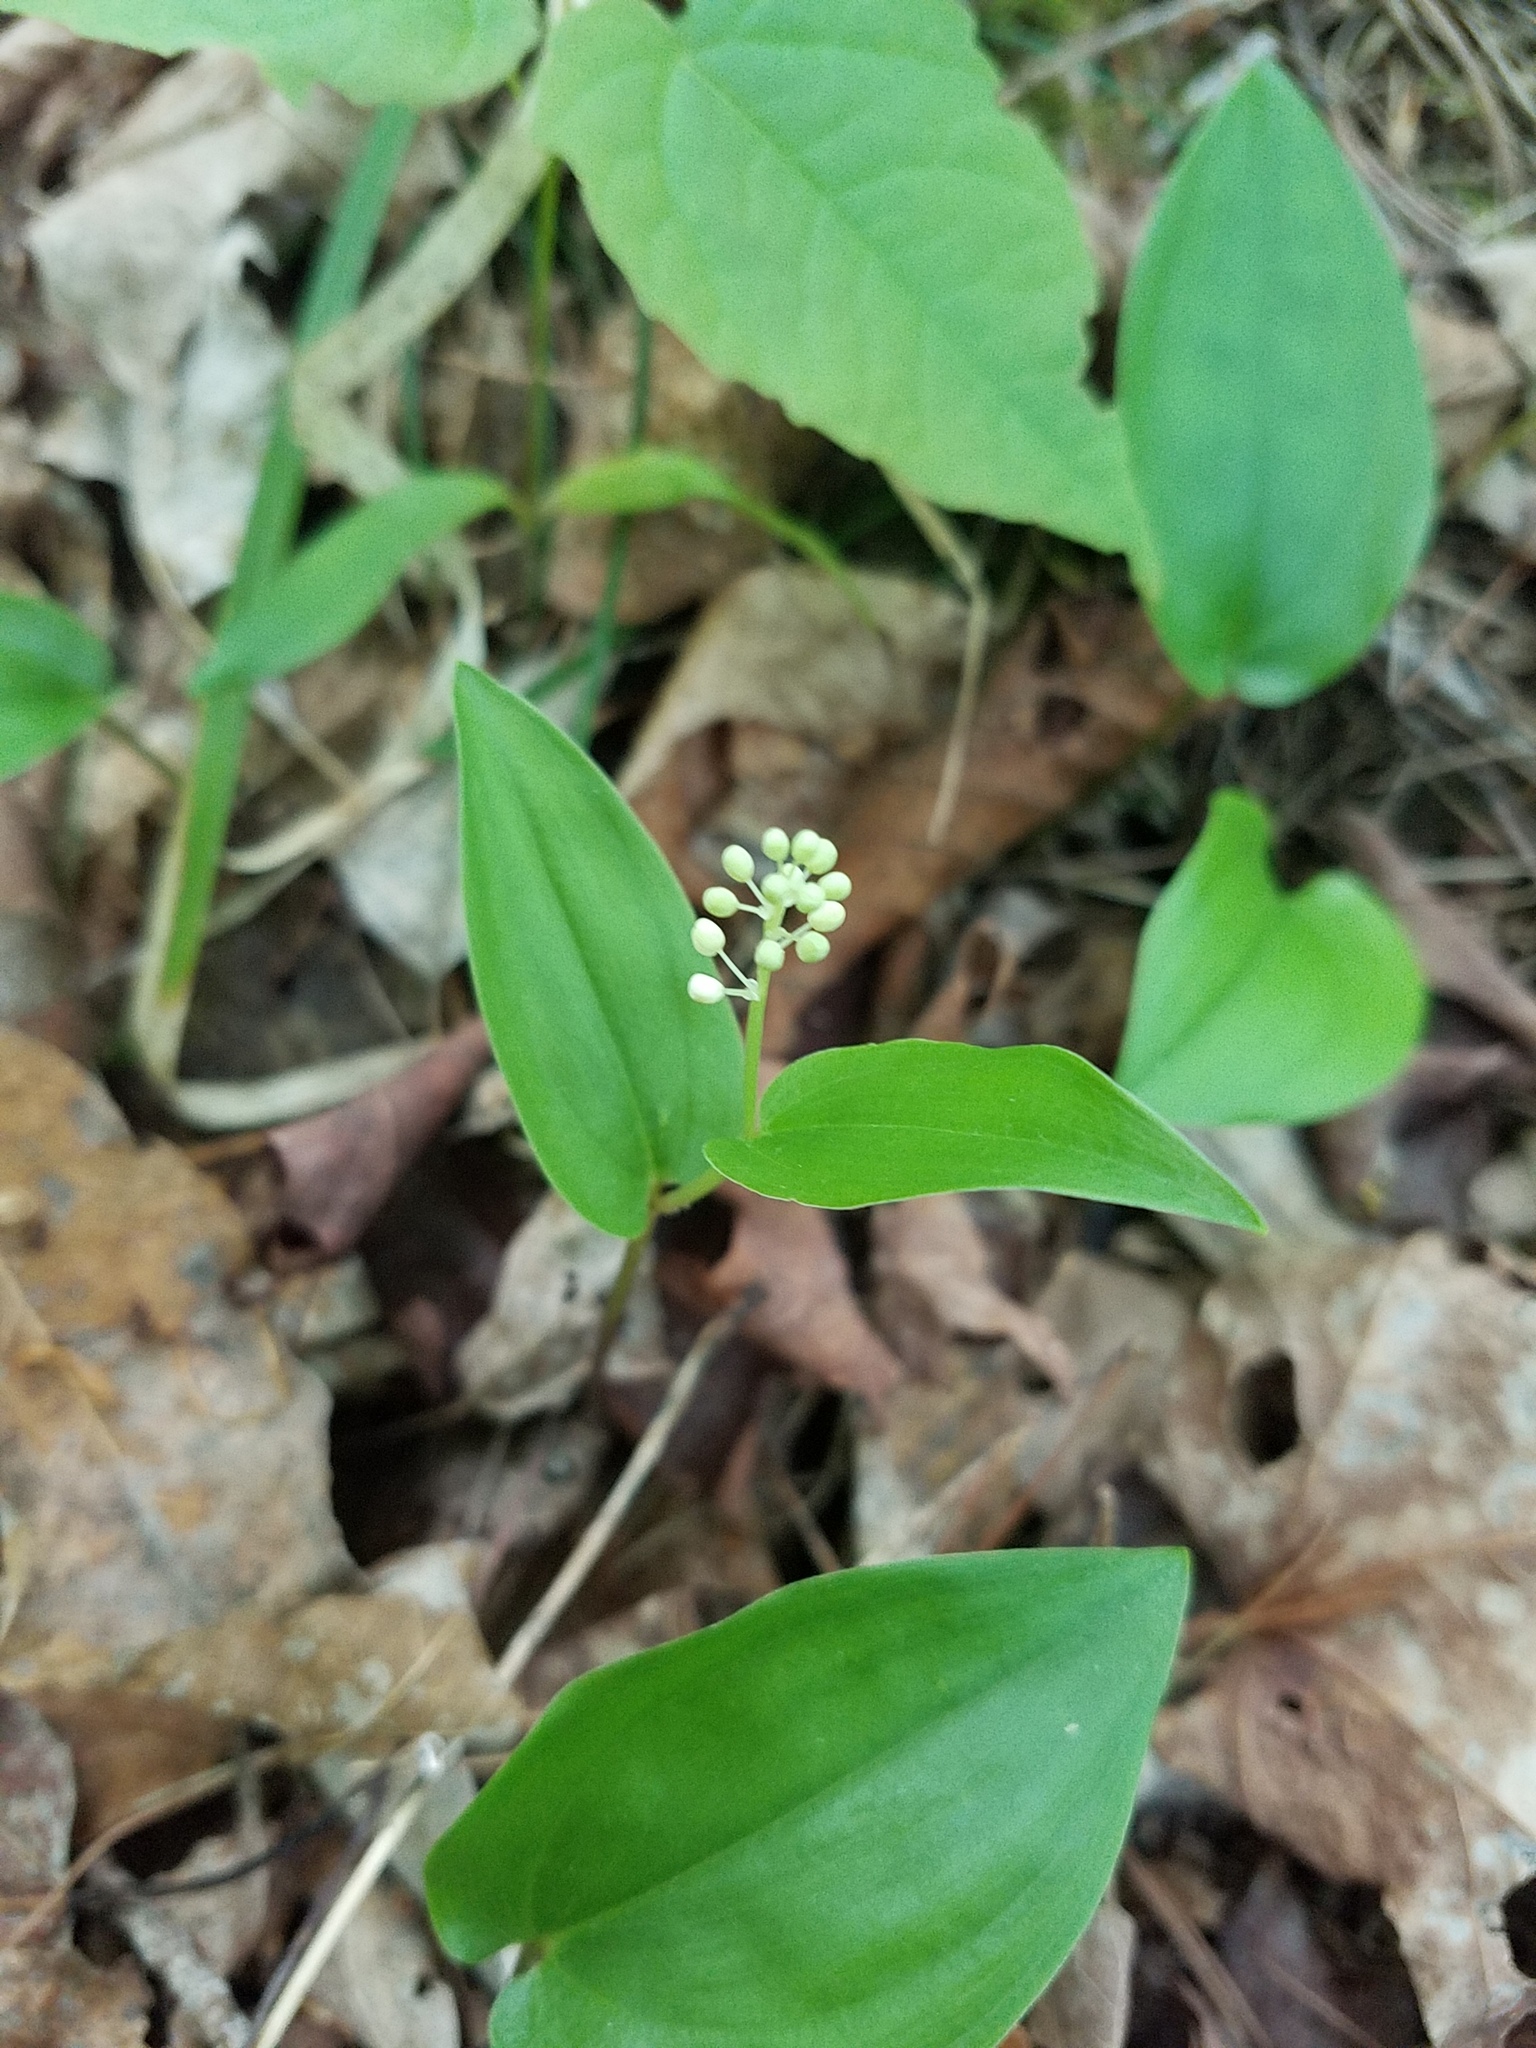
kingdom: Plantae
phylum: Tracheophyta
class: Liliopsida
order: Asparagales
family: Asparagaceae
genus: Maianthemum
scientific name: Maianthemum canadense
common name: False lily-of-the-valley
